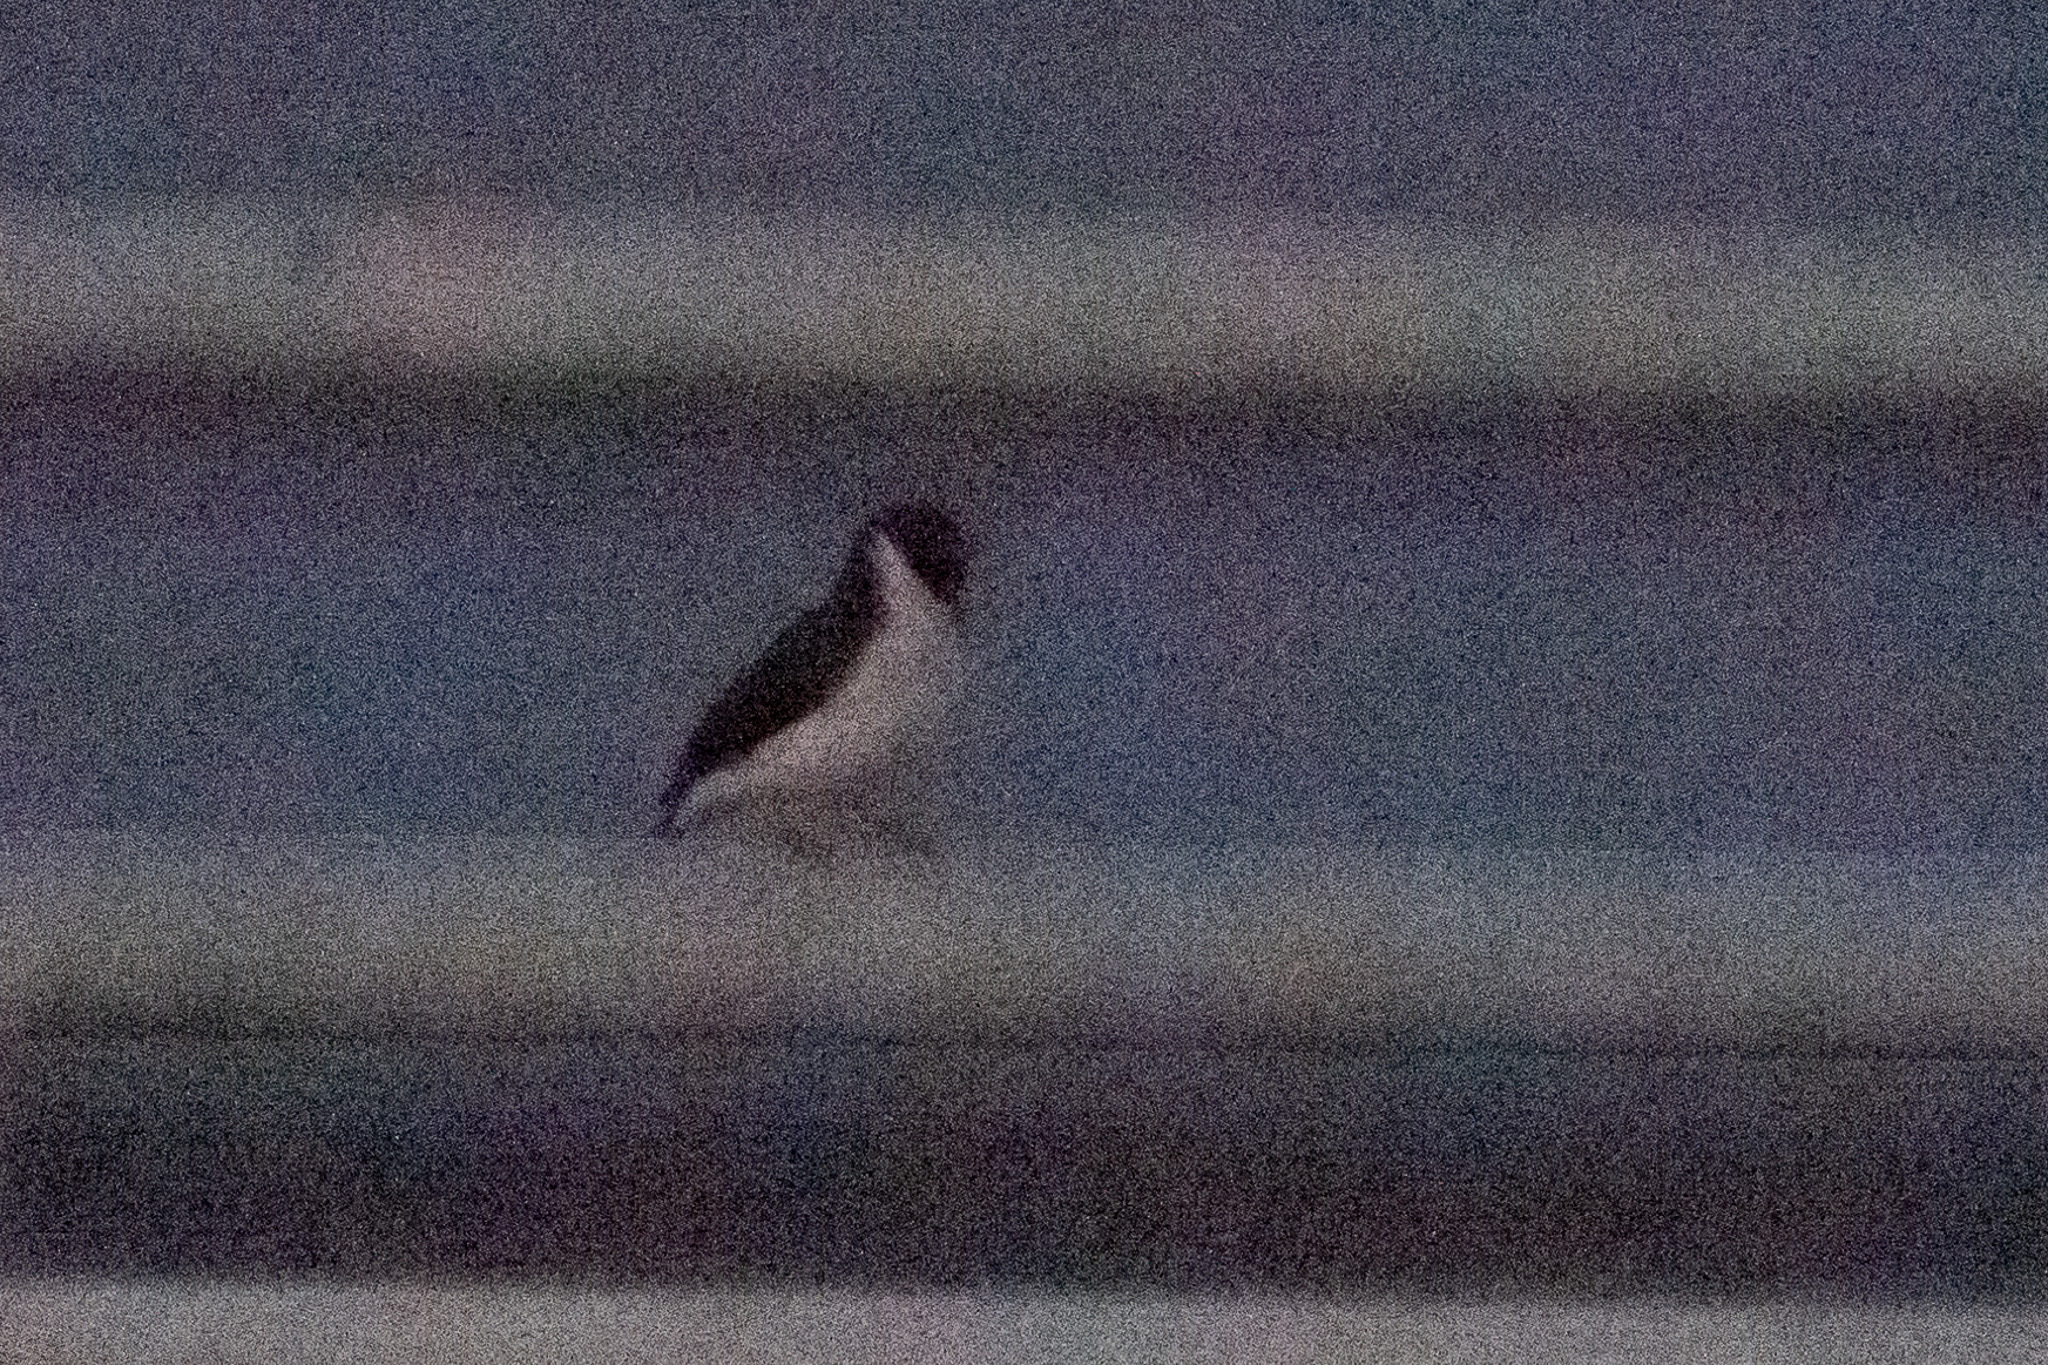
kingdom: Animalia
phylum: Chordata
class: Aves
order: Passeriformes
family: Thraupidae
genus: Paroaria
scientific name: Paroaria capitata
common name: Yellow-billed cardinal
